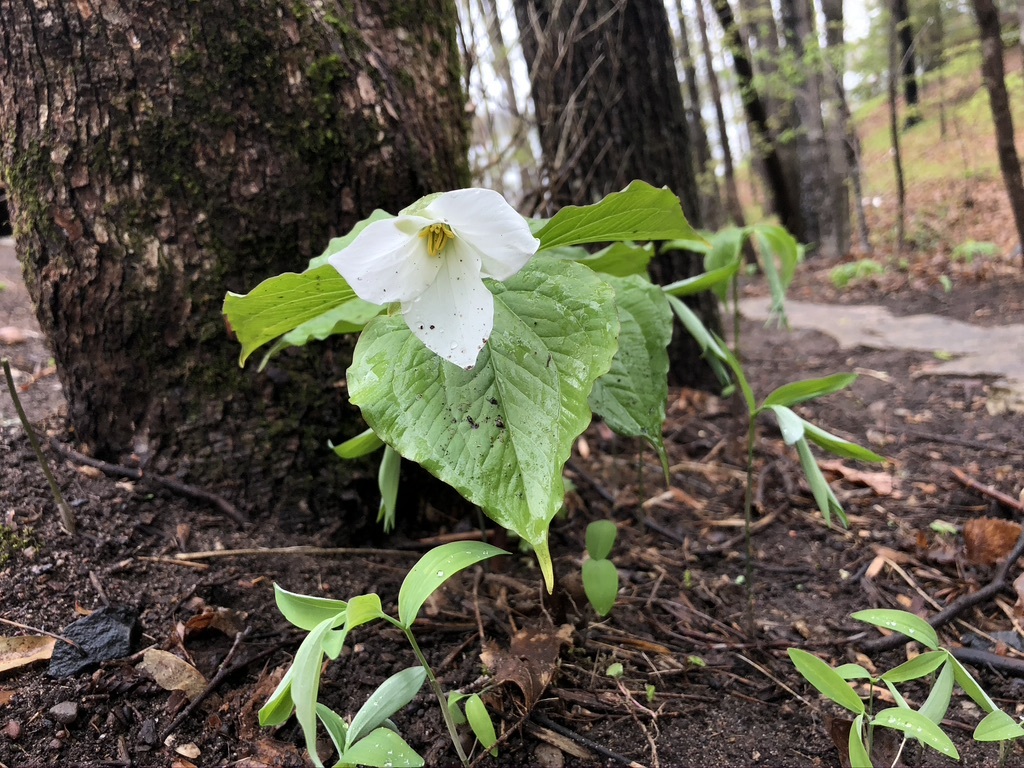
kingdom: Plantae
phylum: Tracheophyta
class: Liliopsida
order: Liliales
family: Melanthiaceae
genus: Trillium
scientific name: Trillium grandiflorum
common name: Great white trillium
